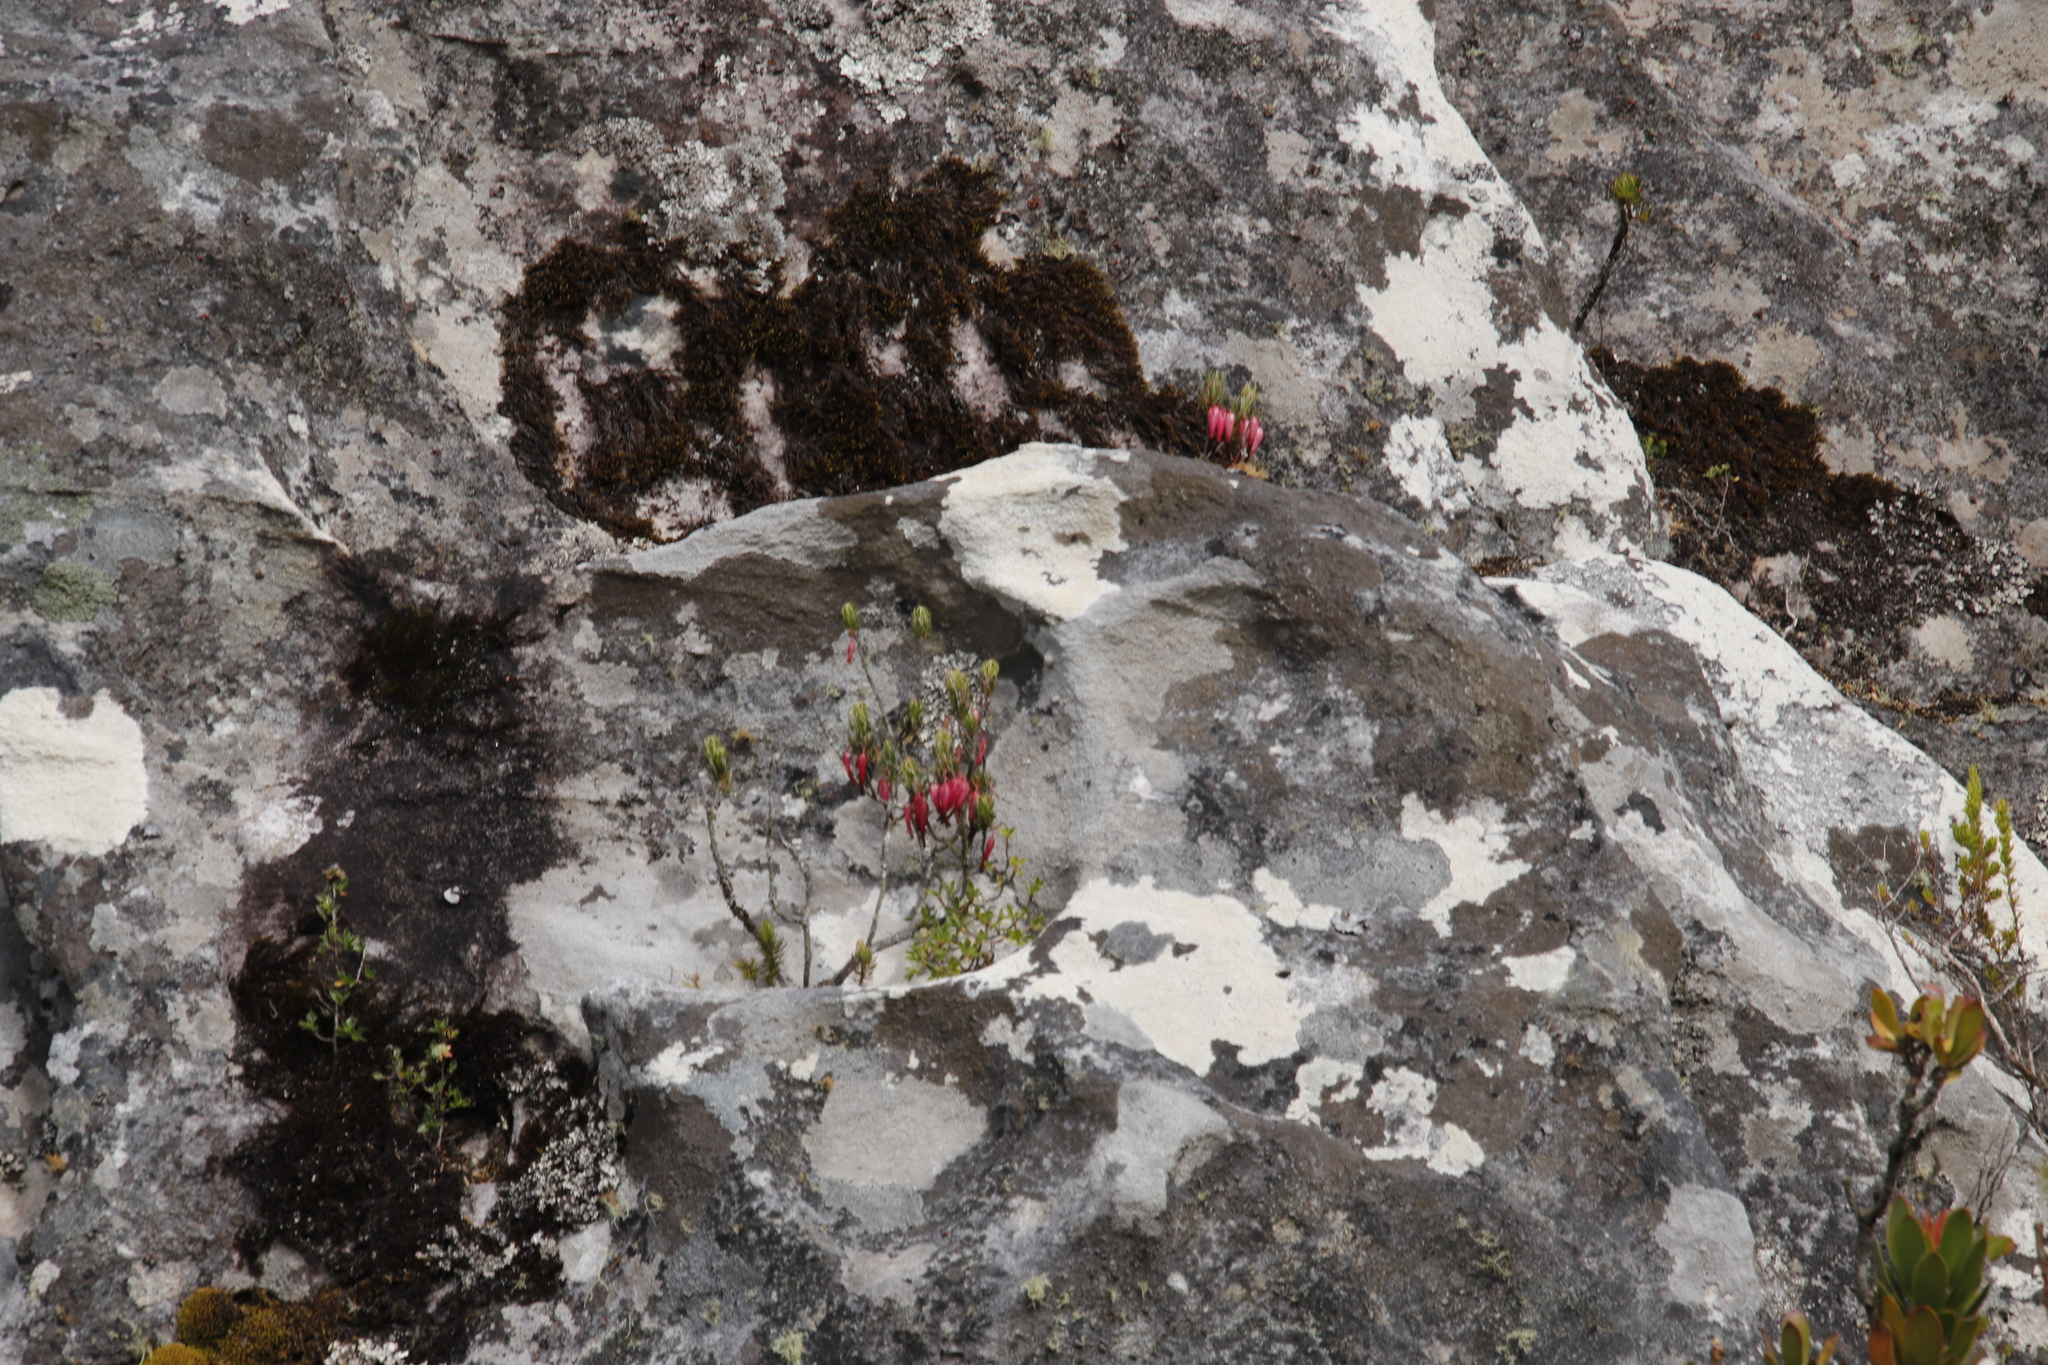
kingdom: Plantae
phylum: Tracheophyta
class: Magnoliopsida
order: Ericales
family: Ericaceae
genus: Erica
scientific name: Erica plukenetii
